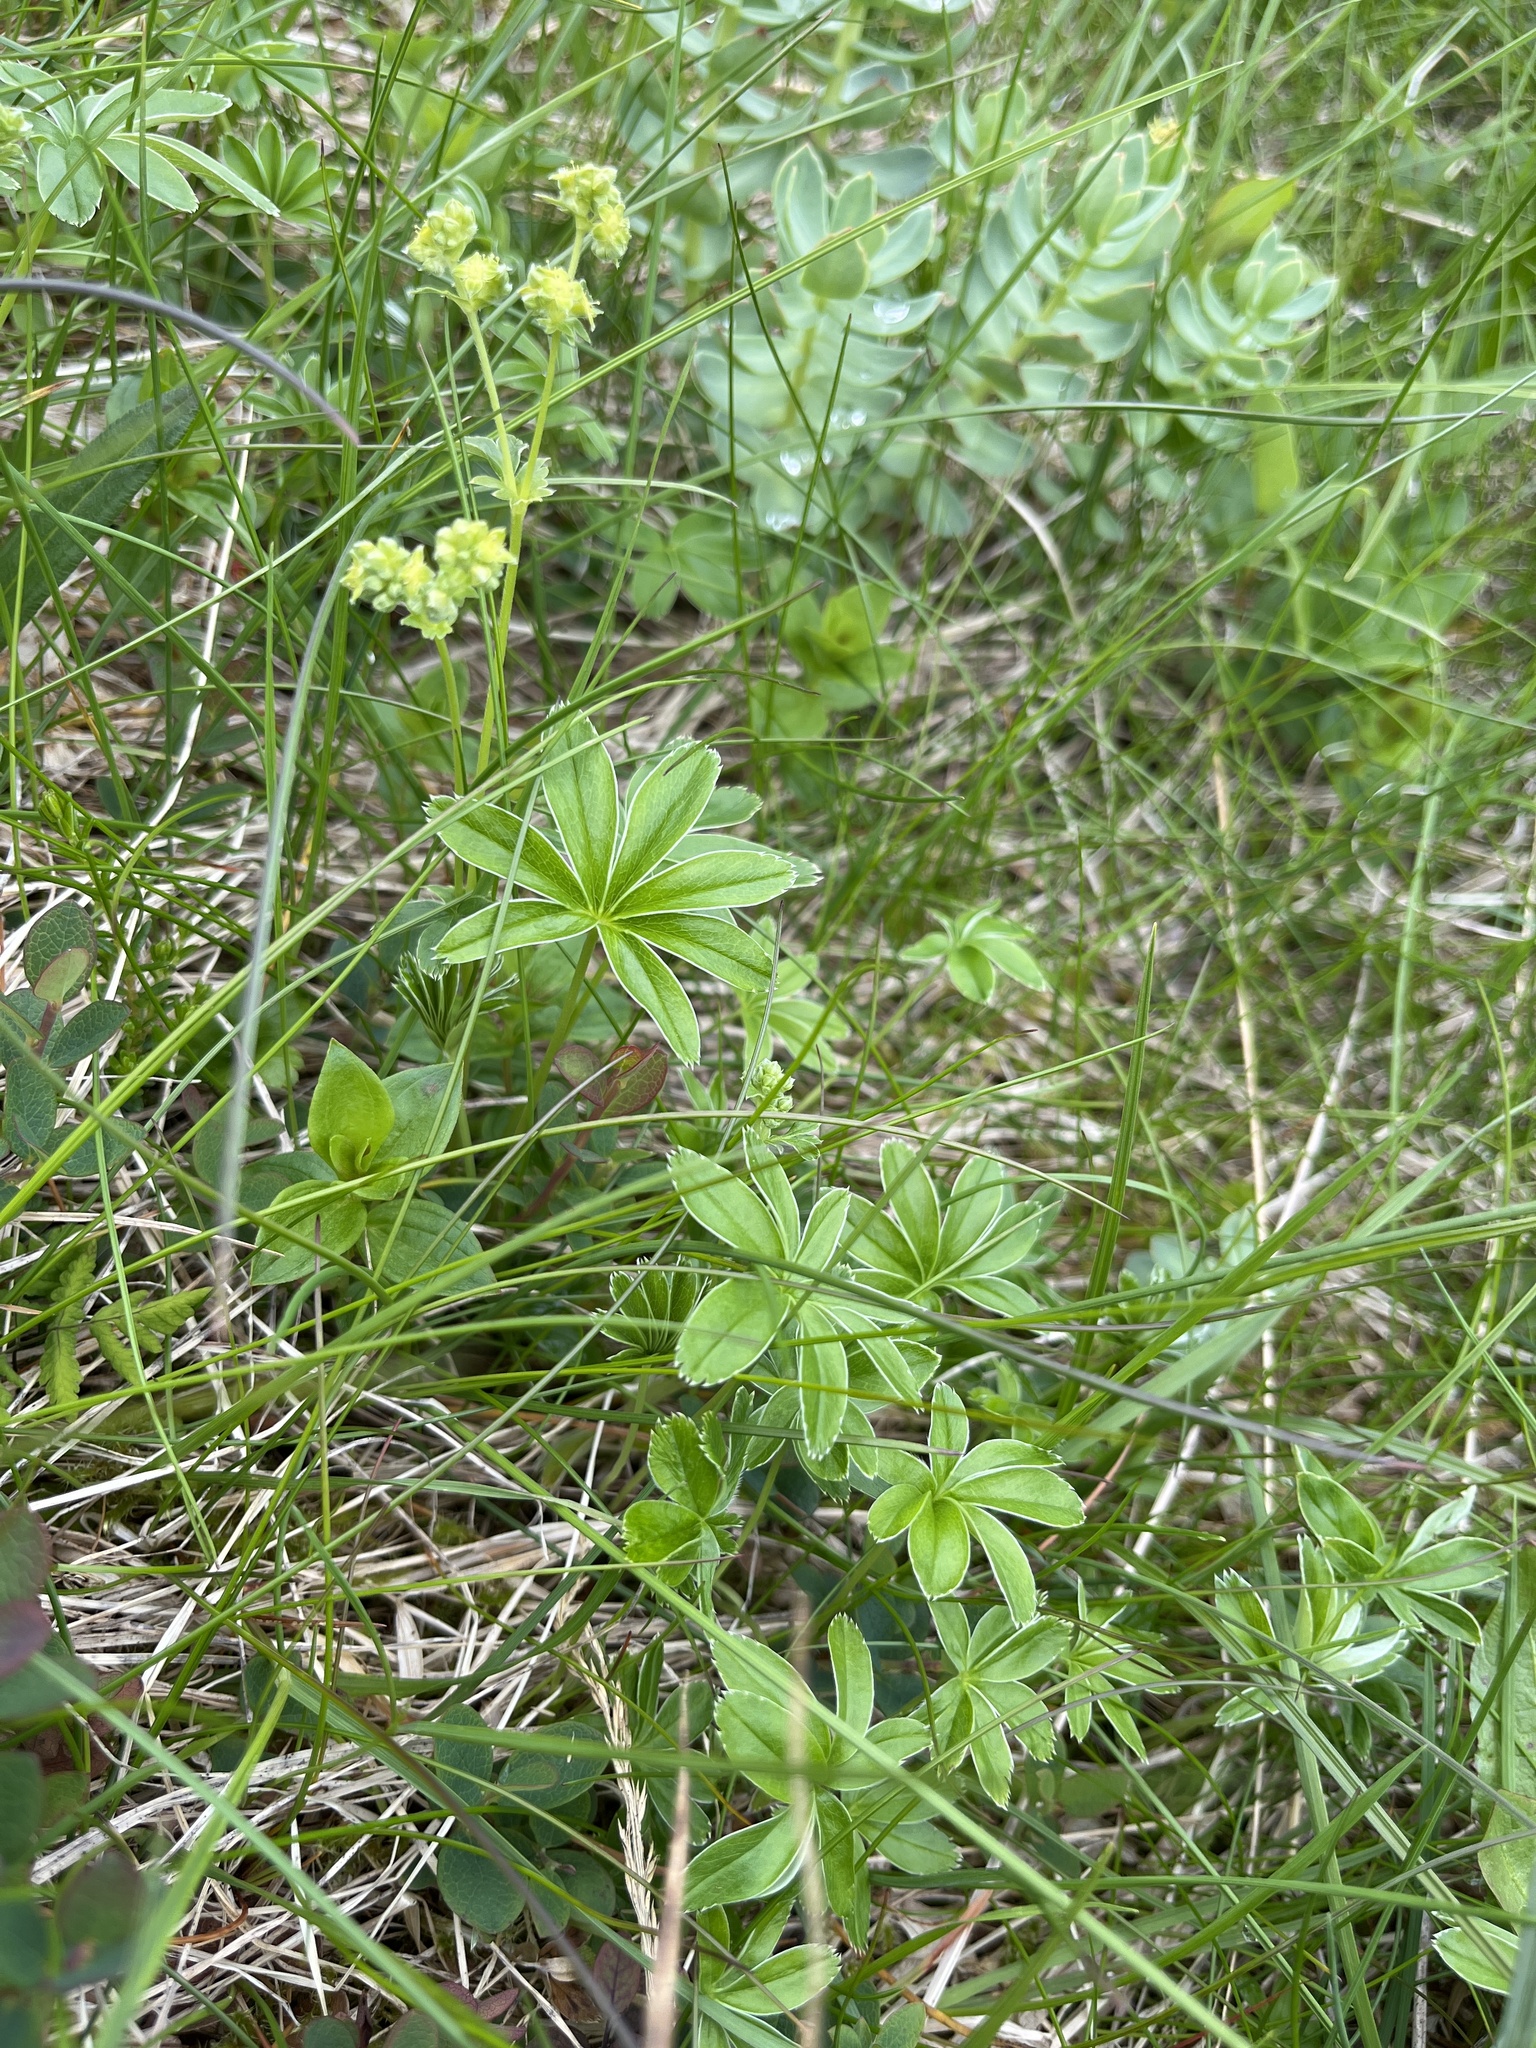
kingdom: Plantae
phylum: Tracheophyta
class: Magnoliopsida
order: Rosales
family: Rosaceae
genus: Alchemilla
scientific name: Alchemilla alpina
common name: Alpine lady's-mantle
